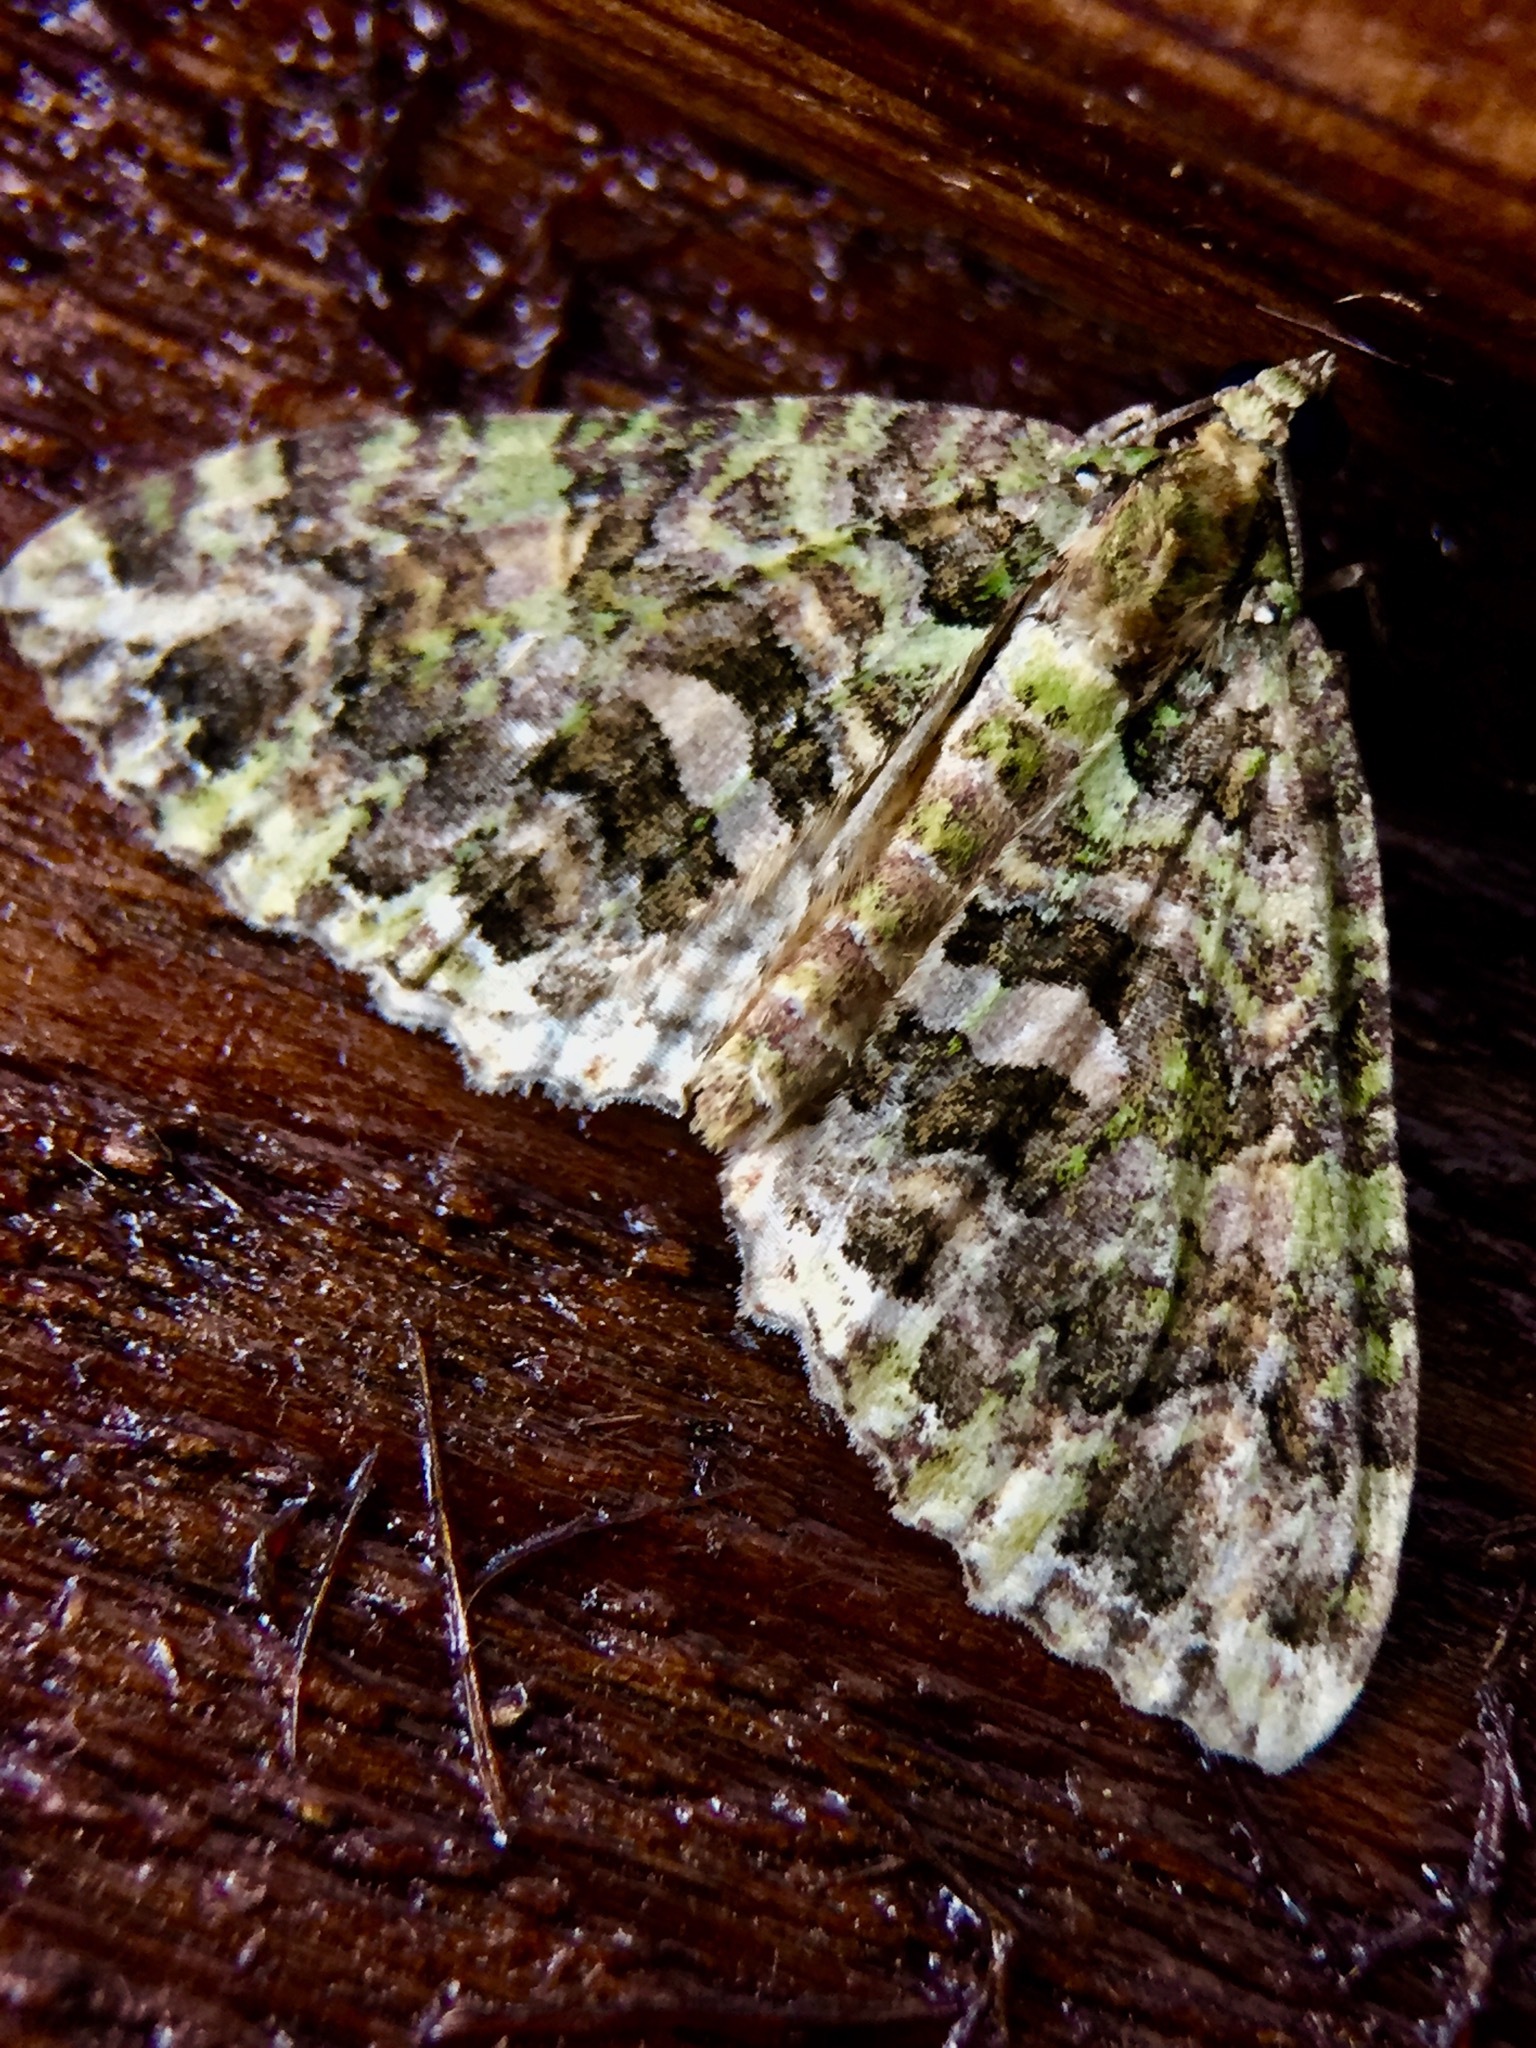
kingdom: Animalia
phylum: Arthropoda
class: Insecta
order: Lepidoptera
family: Geometridae
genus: Austrocidaria
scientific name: Austrocidaria similata
